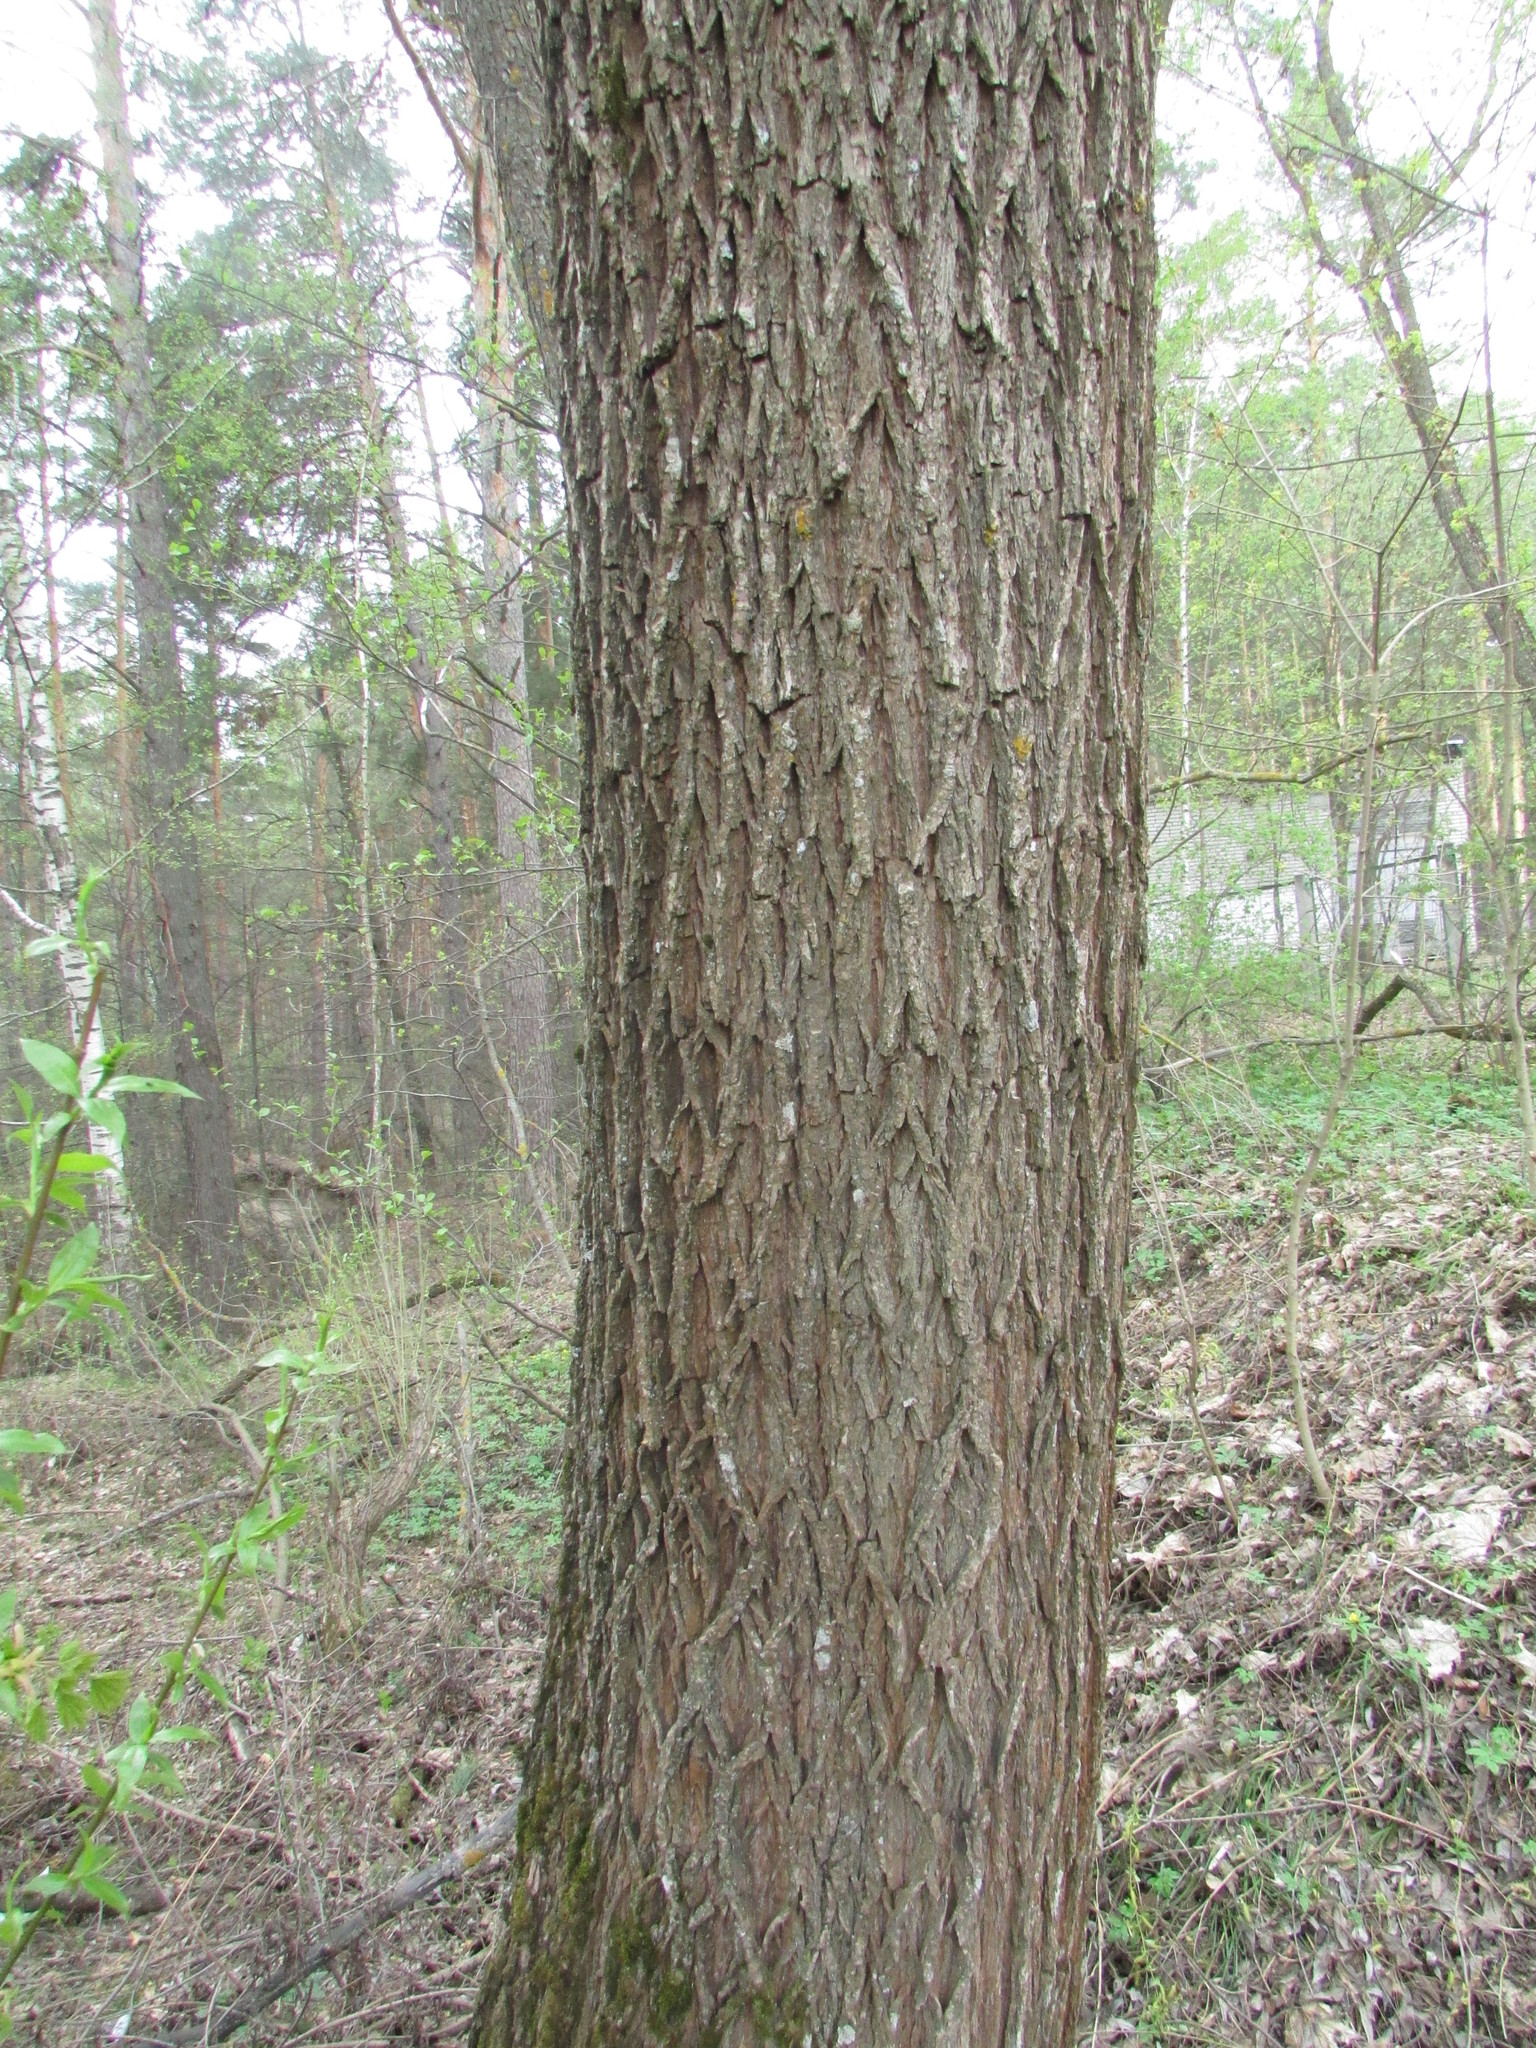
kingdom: Plantae
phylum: Tracheophyta
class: Magnoliopsida
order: Malpighiales
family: Salicaceae
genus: Salix
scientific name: Salix alba
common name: White willow
